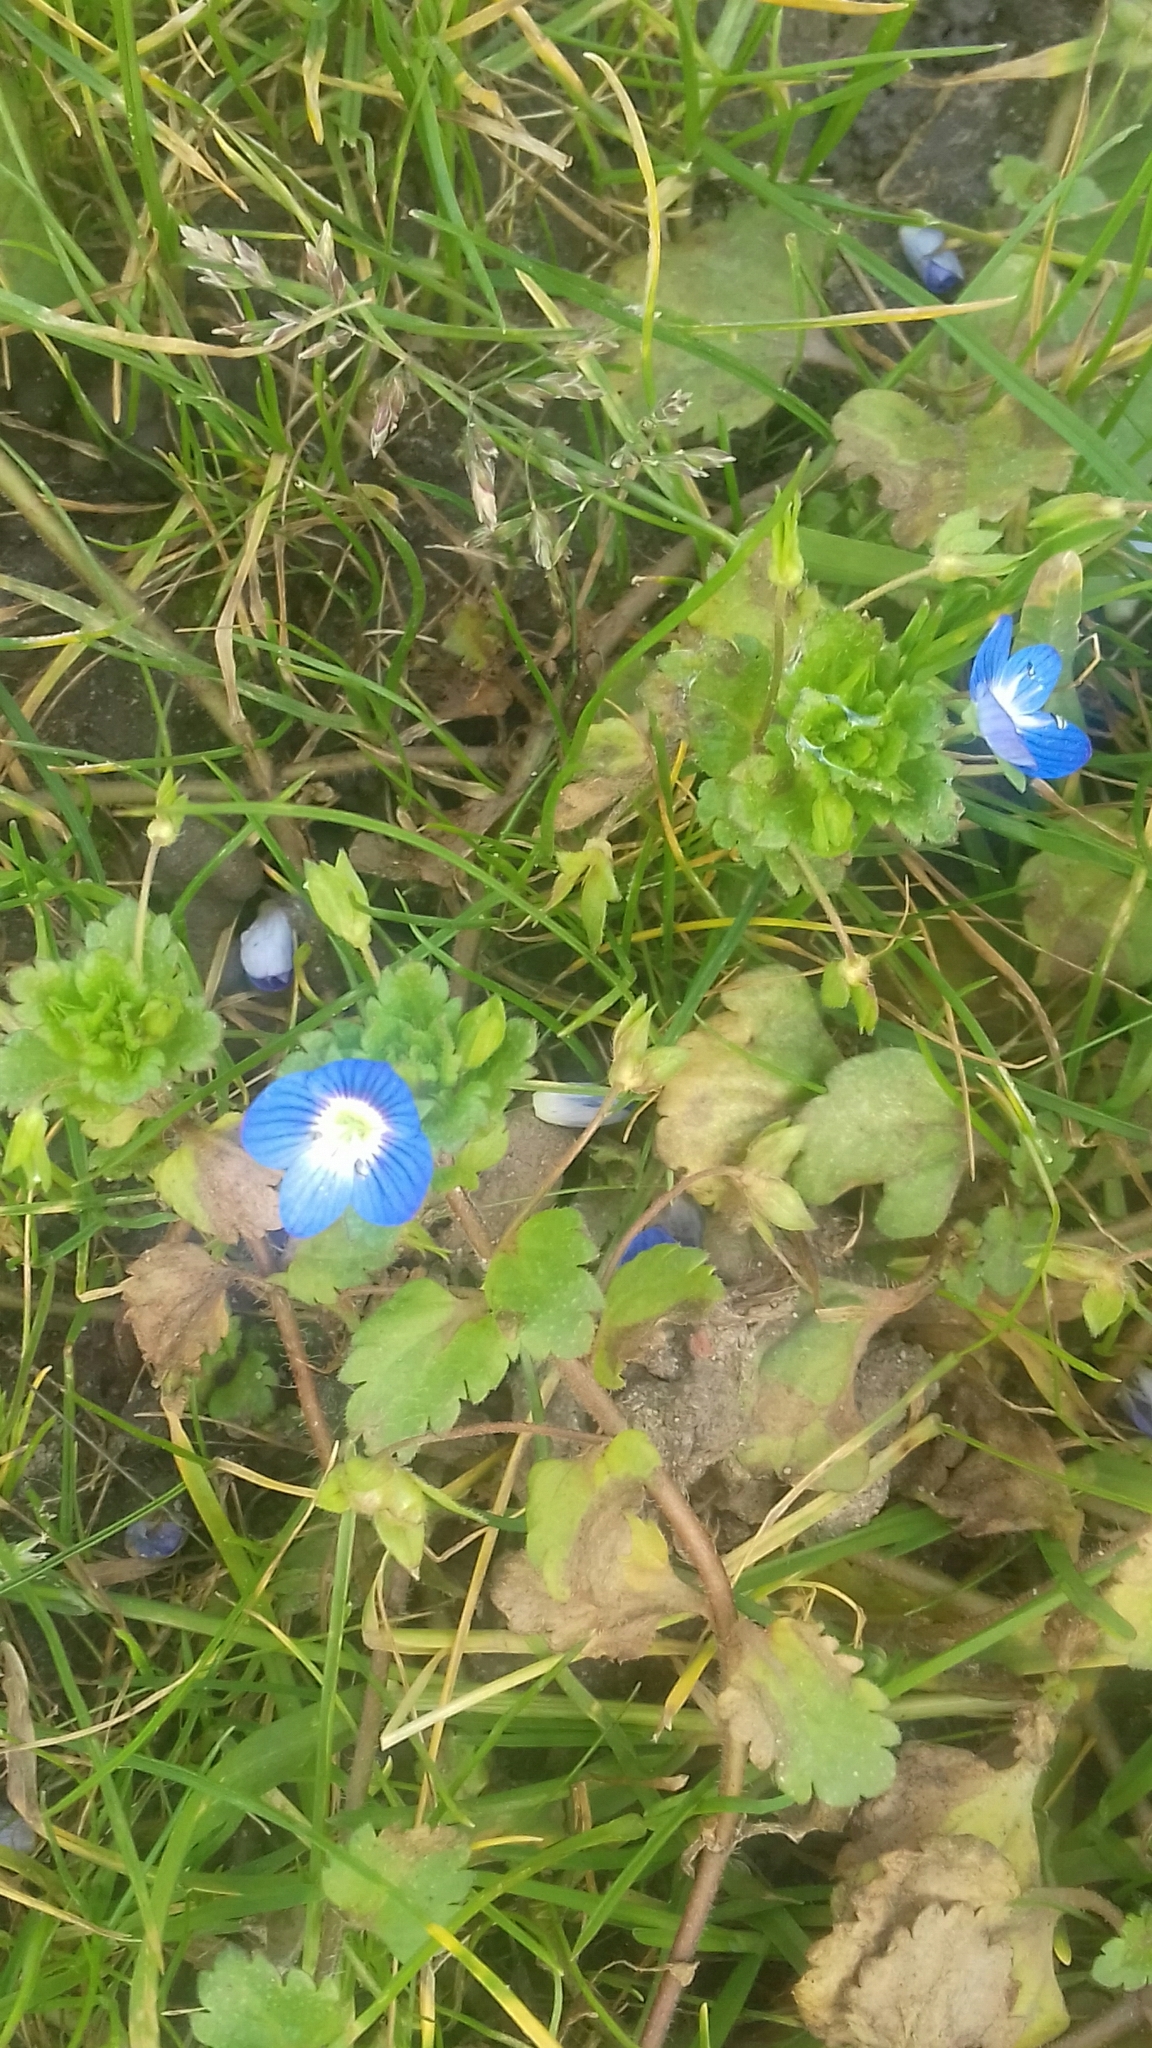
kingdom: Plantae
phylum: Tracheophyta
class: Magnoliopsida
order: Lamiales
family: Plantaginaceae
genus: Veronica
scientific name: Veronica persica
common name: Common field-speedwell
